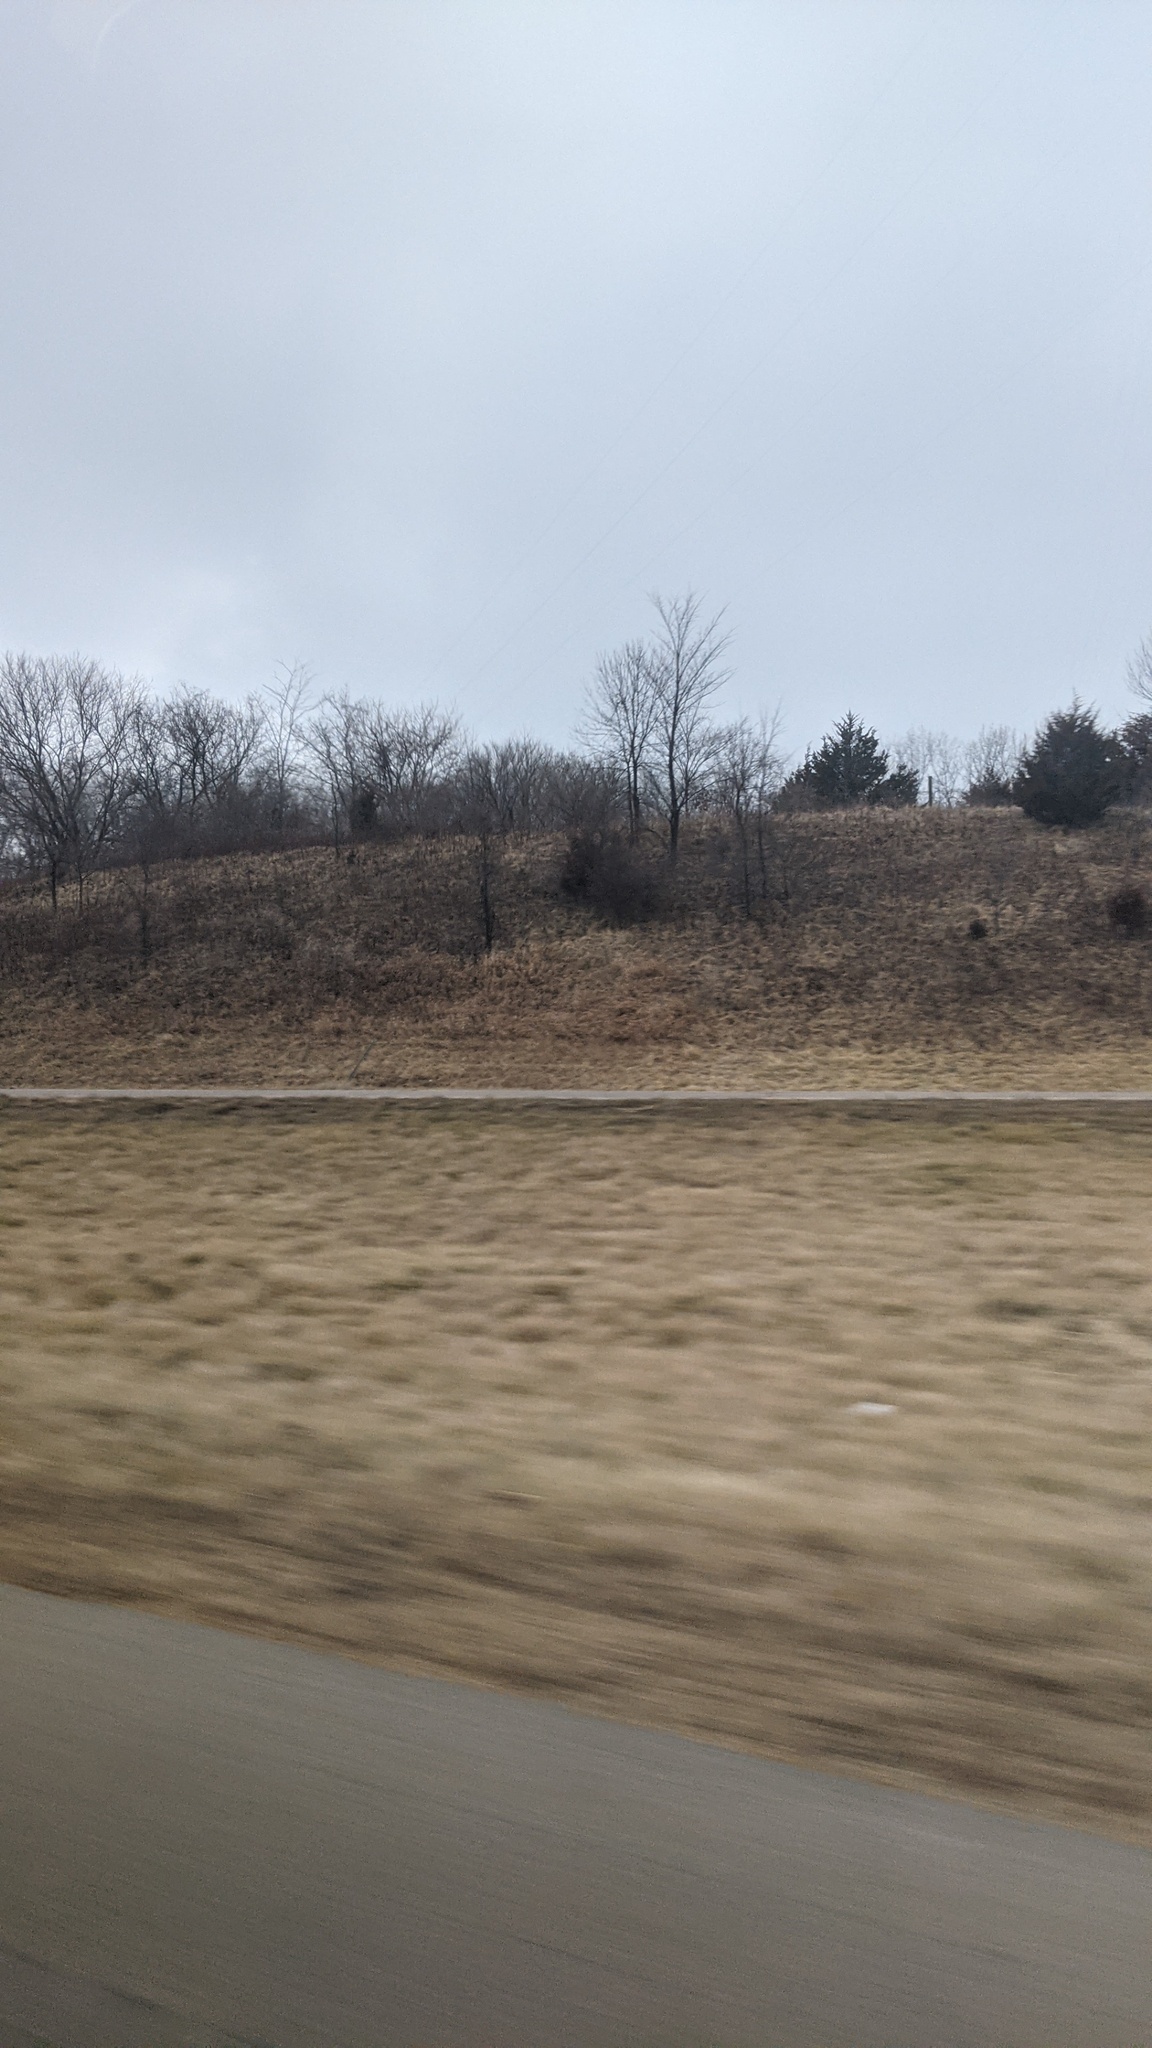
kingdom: Plantae
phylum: Tracheophyta
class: Pinopsida
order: Pinales
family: Cupressaceae
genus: Juniperus
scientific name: Juniperus virginiana
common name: Red juniper
